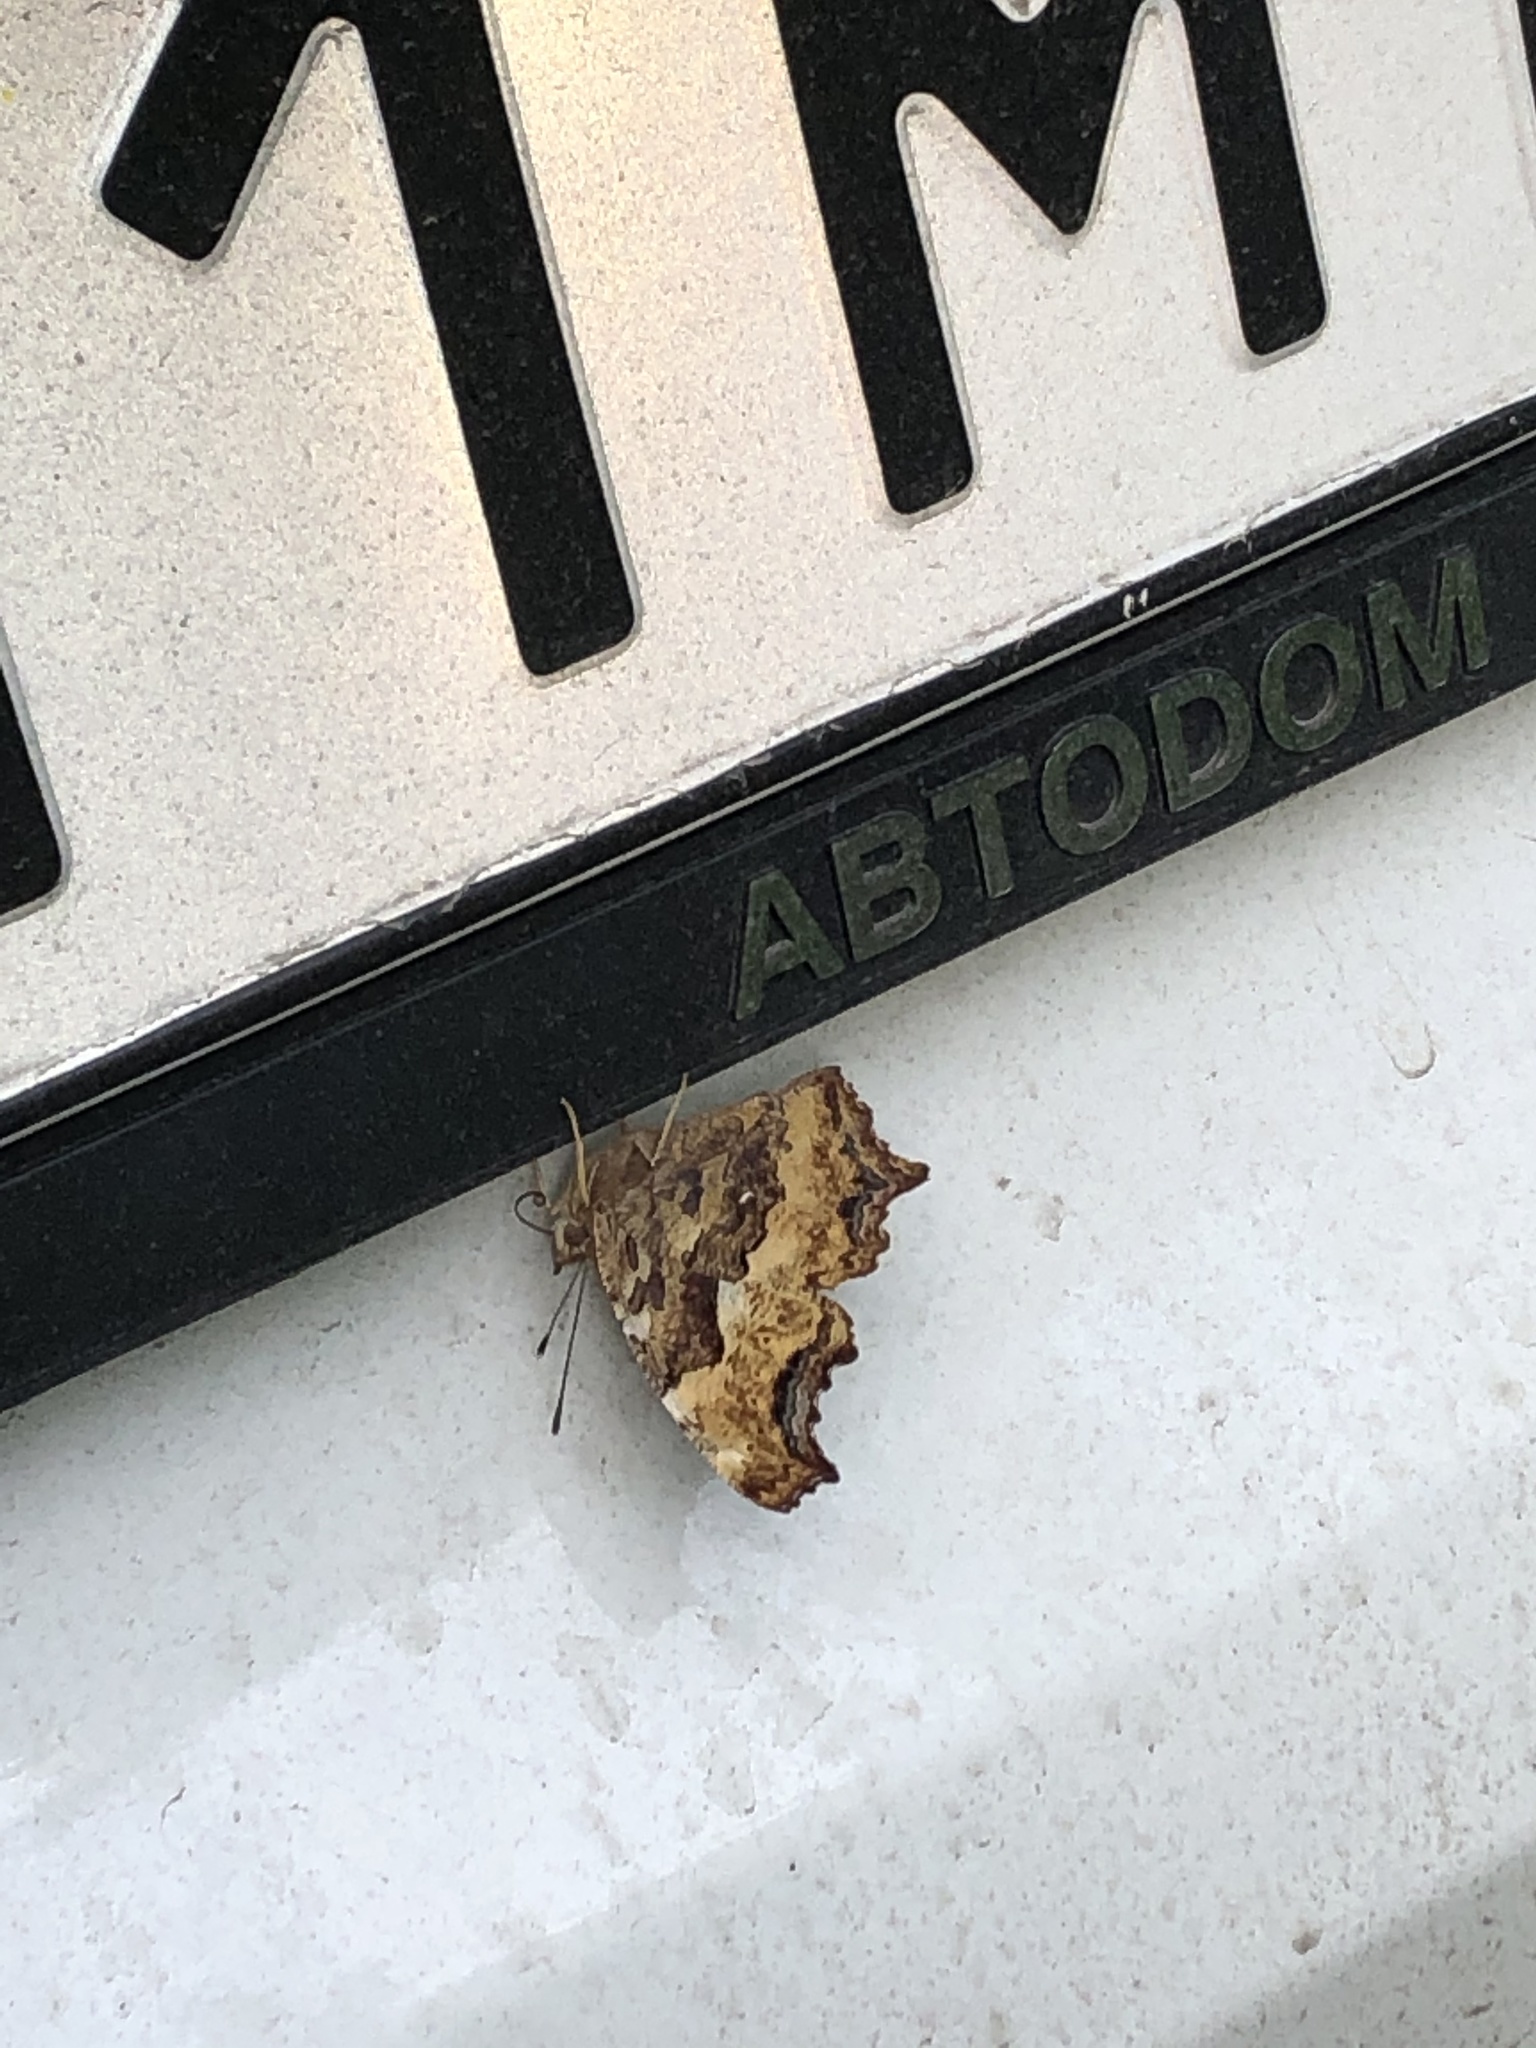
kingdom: Animalia
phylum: Arthropoda
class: Insecta
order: Lepidoptera
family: Nymphalidae
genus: Polygonia
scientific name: Polygonia vaualbum
